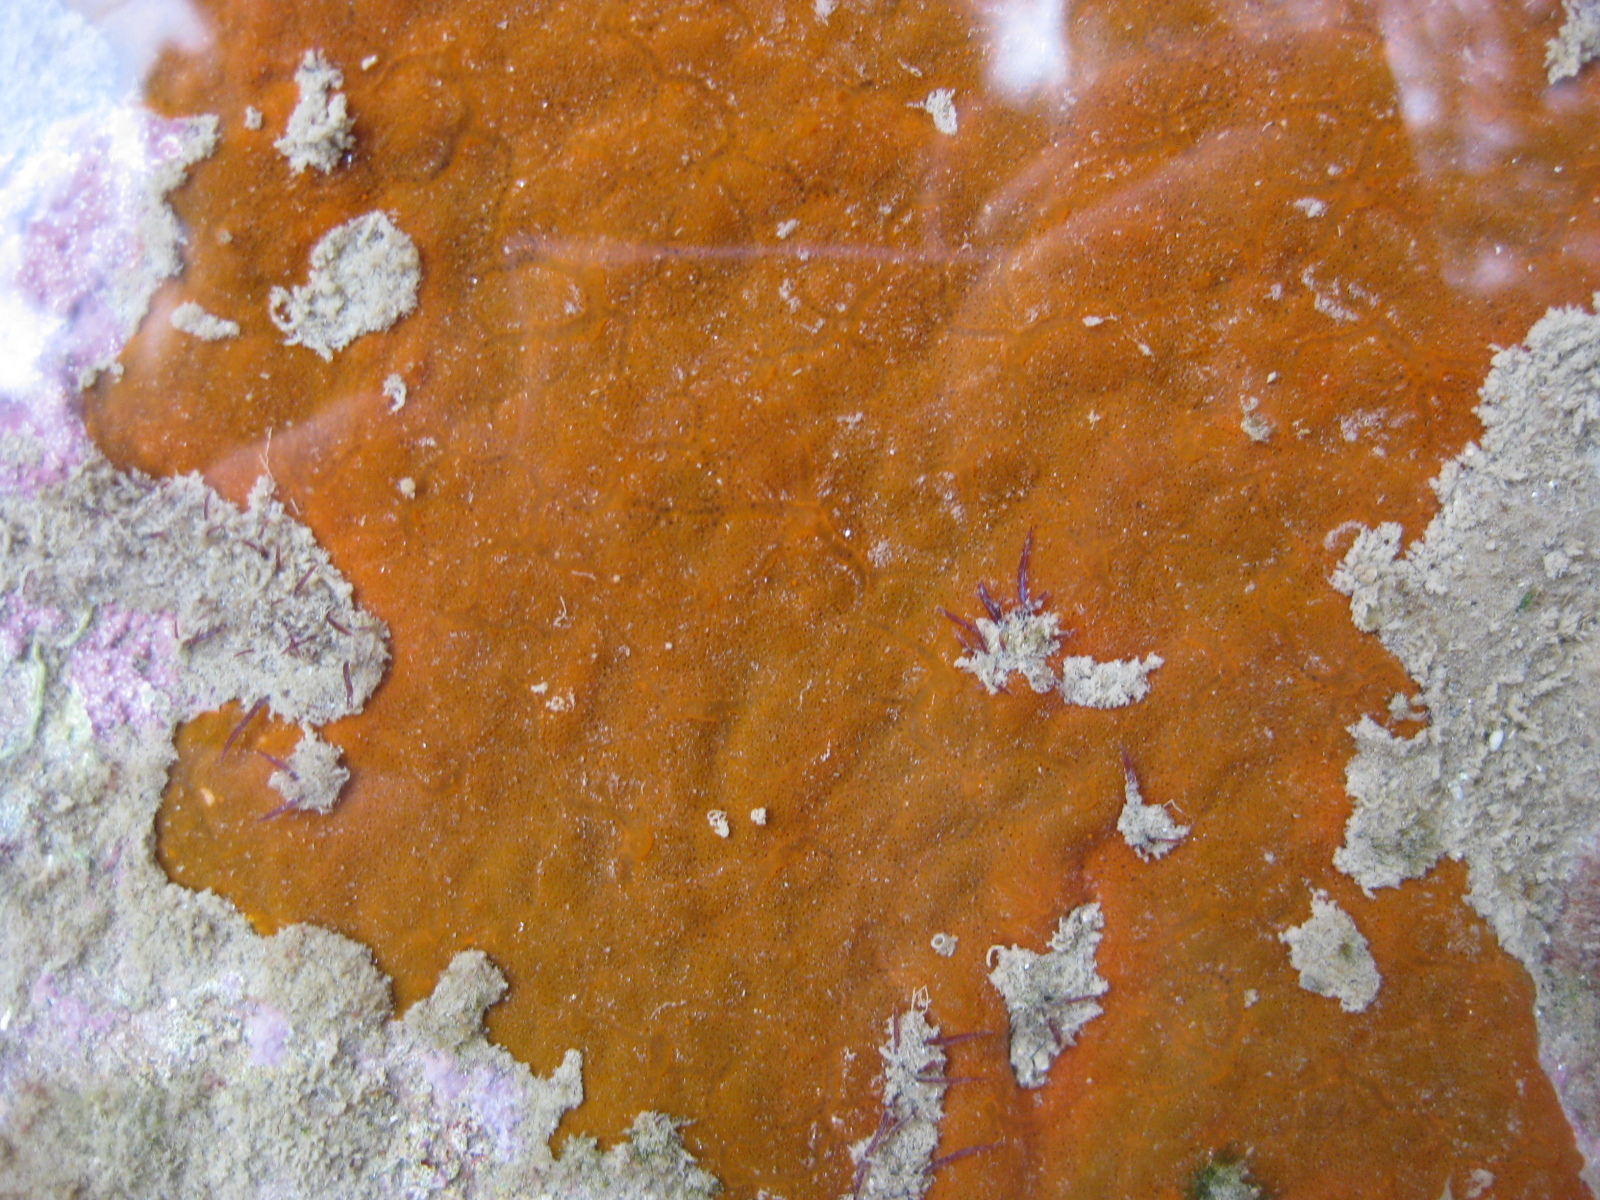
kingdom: Animalia
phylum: Porifera
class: Demospongiae
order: Tethyida
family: Timeidae
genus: Timea
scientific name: Timea aurantiaca
